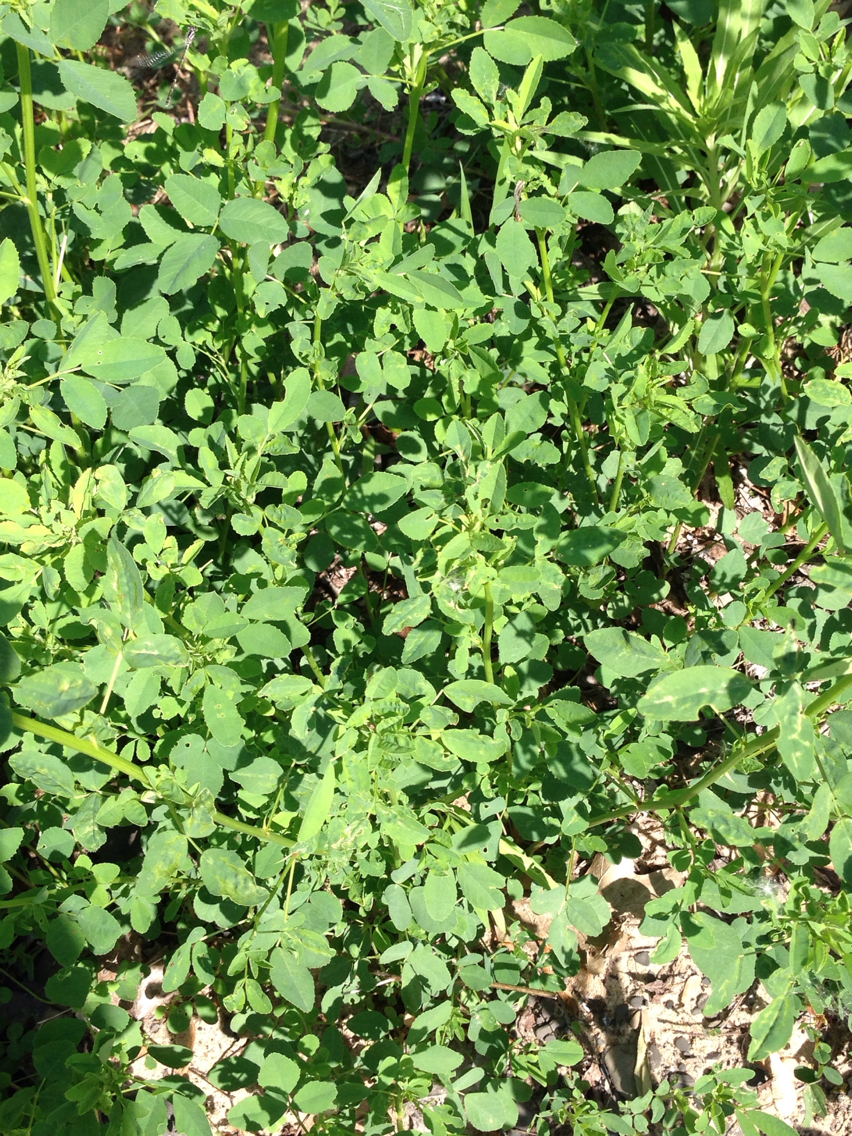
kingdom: Plantae
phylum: Tracheophyta
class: Magnoliopsida
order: Fabales
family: Fabaceae
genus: Melilotus
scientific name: Melilotus
